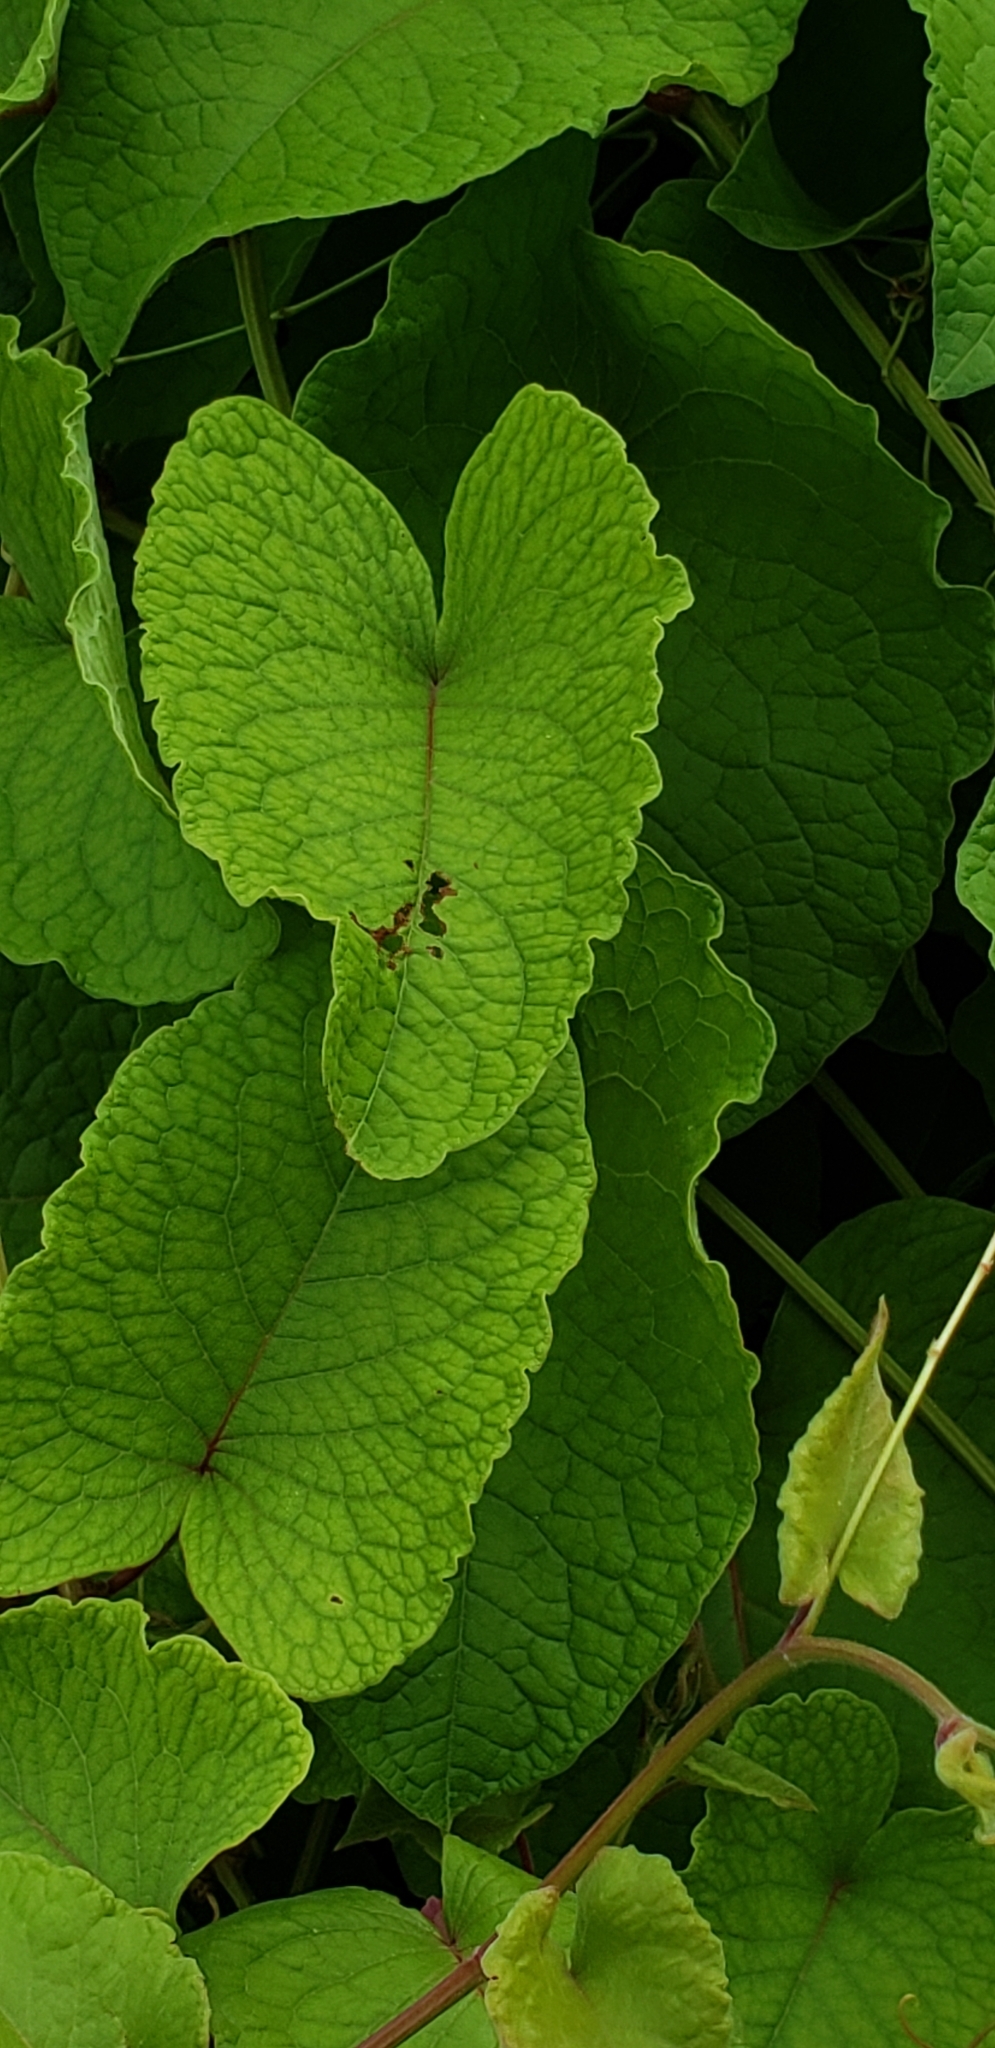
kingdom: Plantae
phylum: Tracheophyta
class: Magnoliopsida
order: Caryophyllales
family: Polygonaceae
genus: Antigonon
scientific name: Antigonon leptopus
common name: Coral vine
